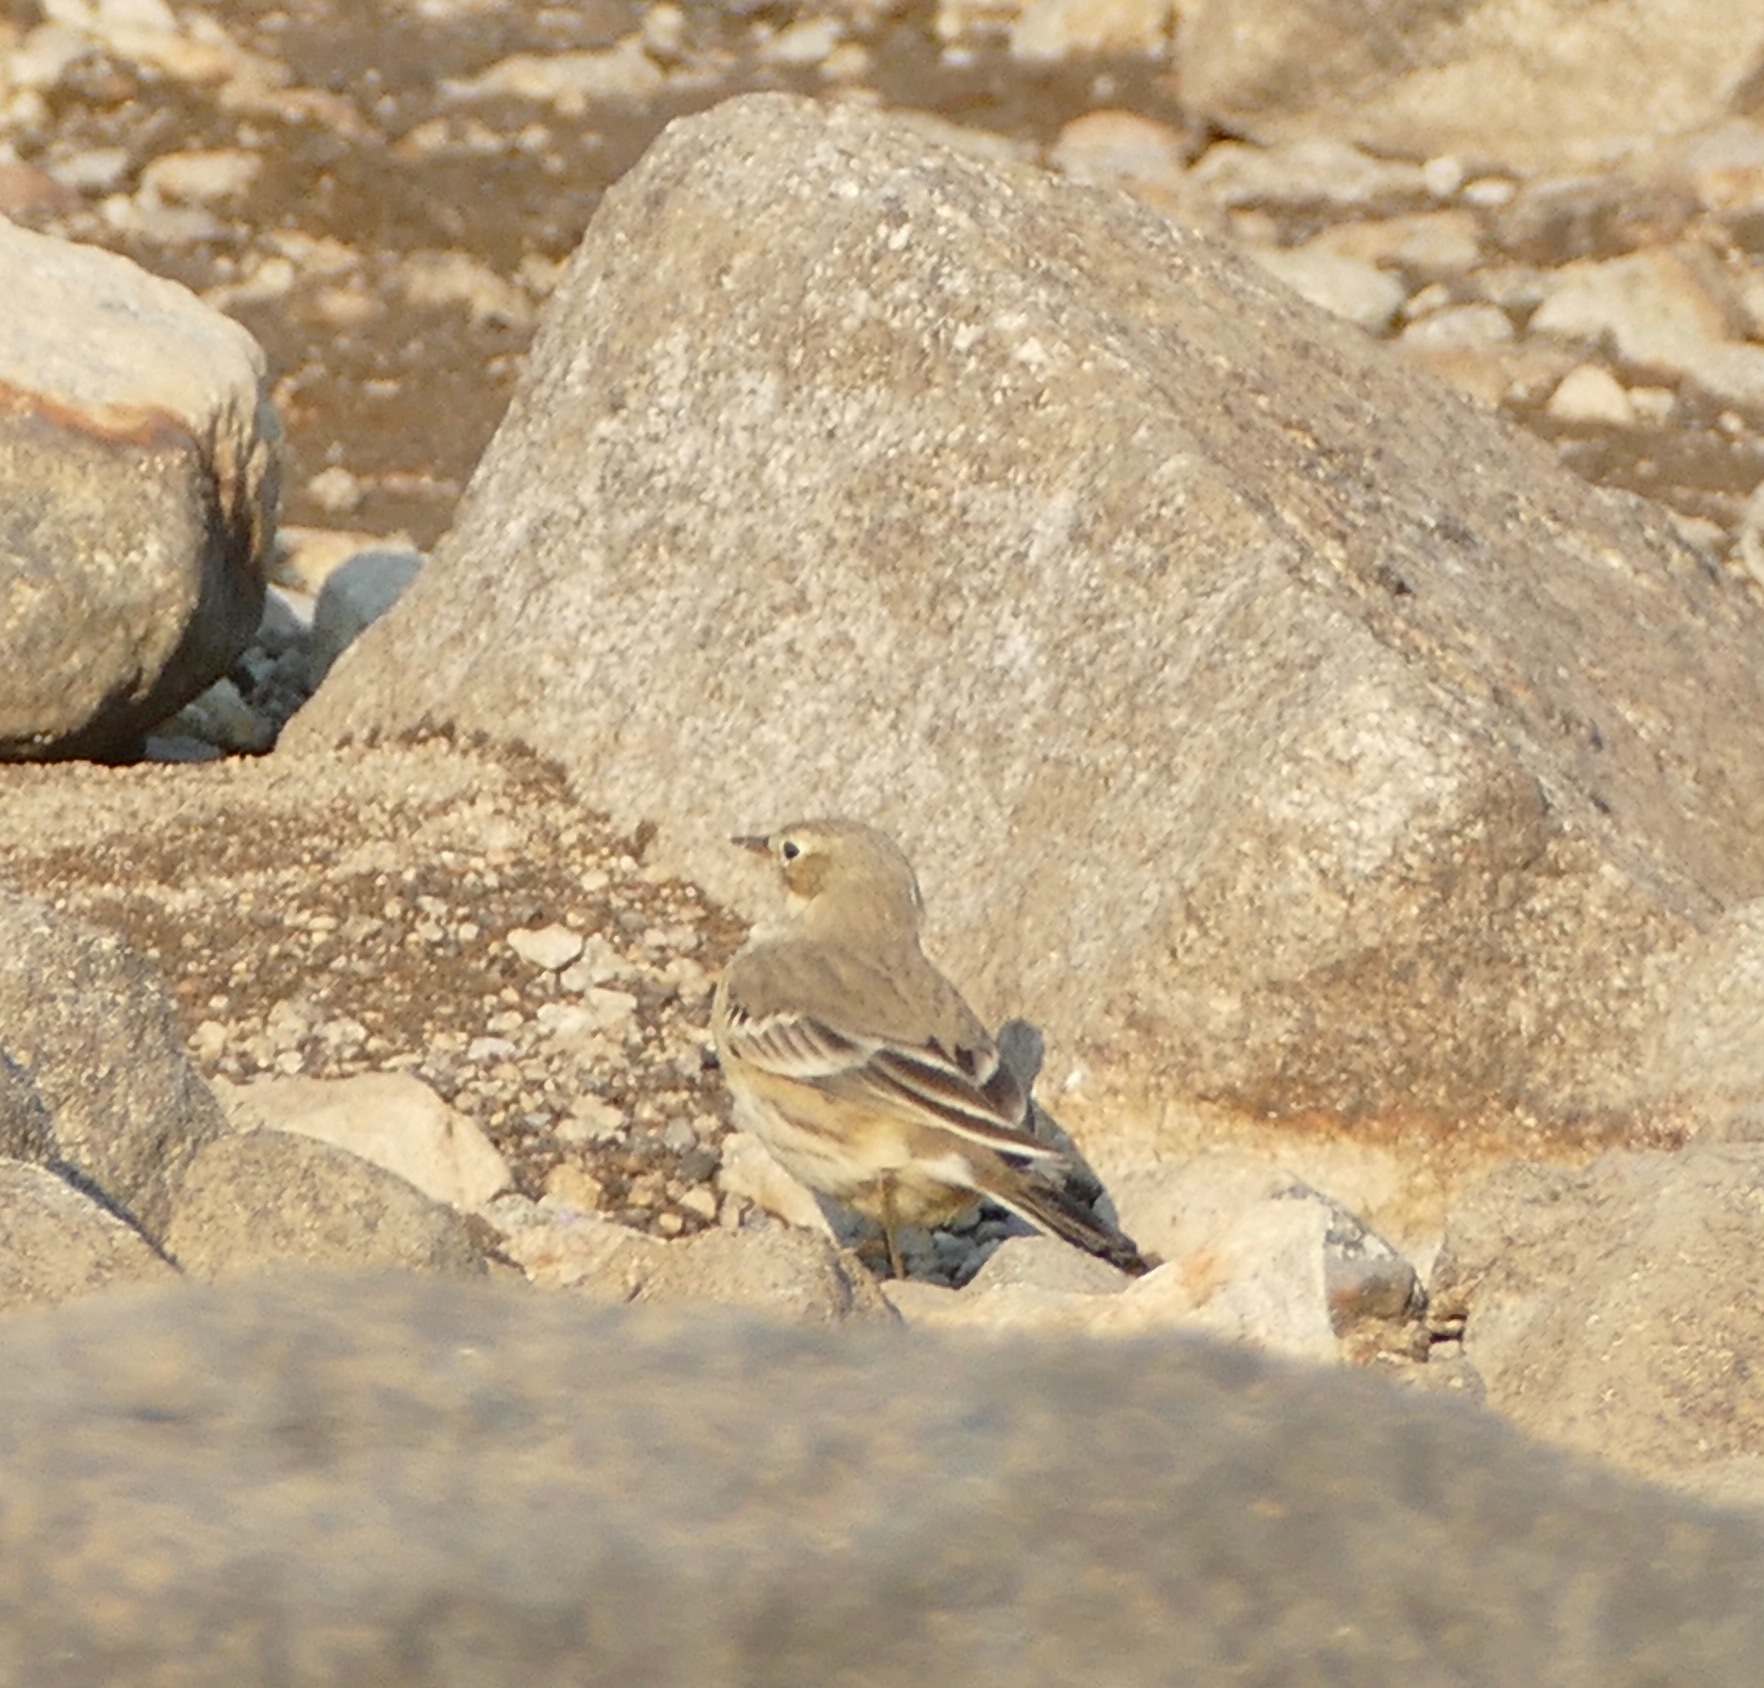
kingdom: Animalia
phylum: Chordata
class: Aves
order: Passeriformes
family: Motacillidae
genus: Anthus
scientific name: Anthus rubescens
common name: Buff-bellied pipit
